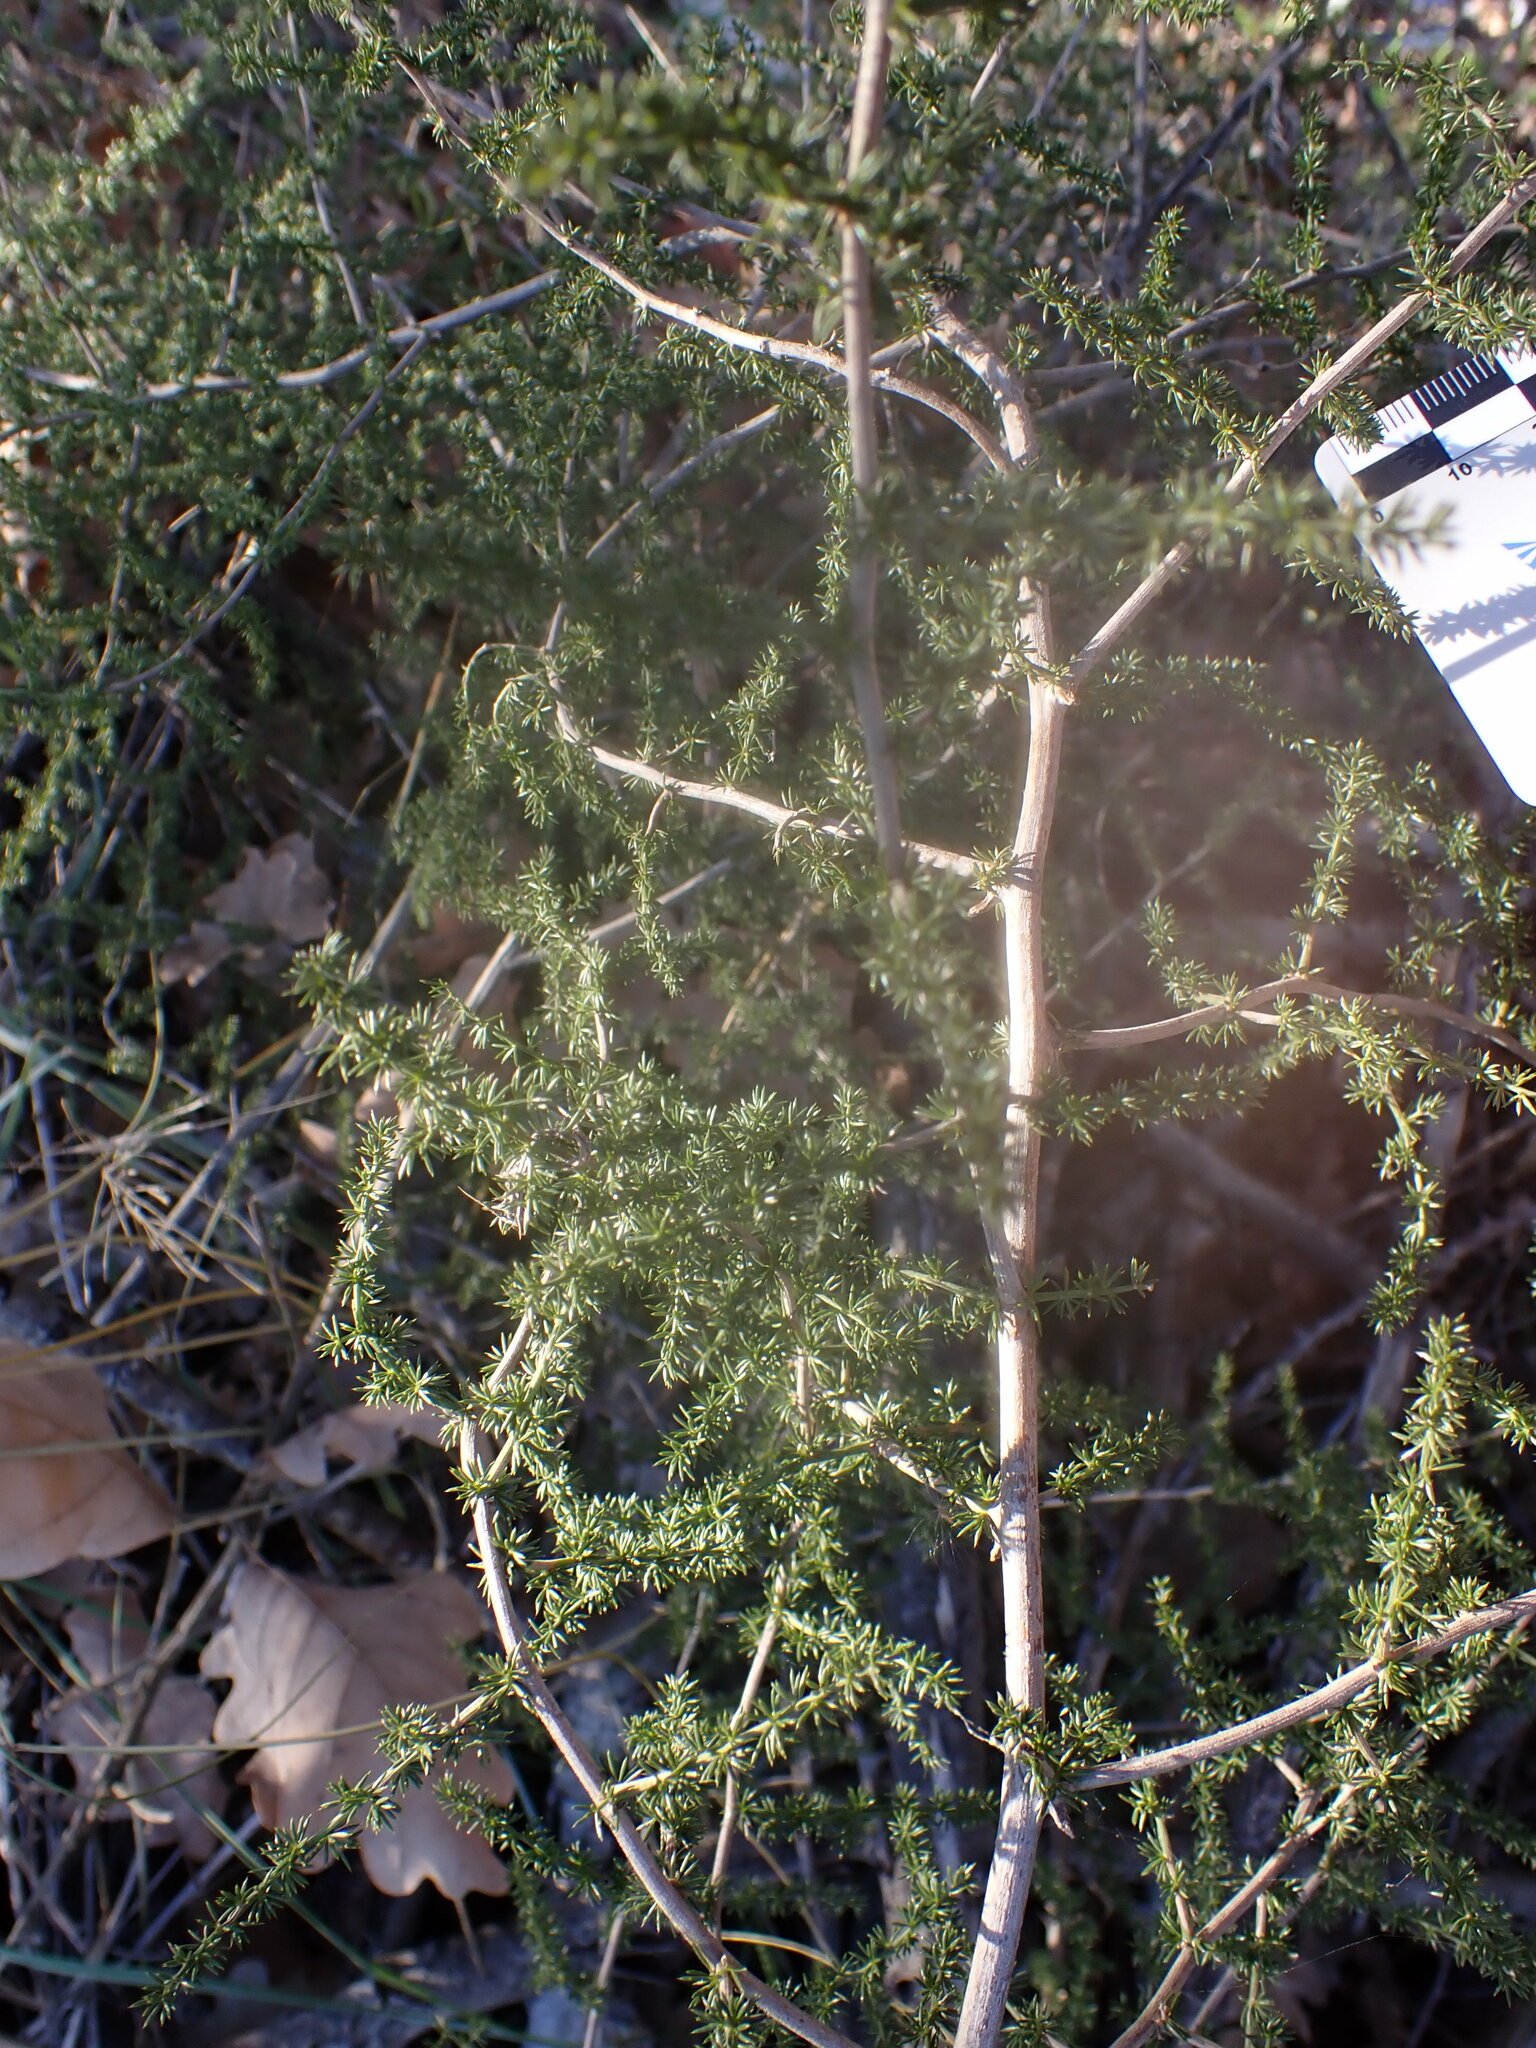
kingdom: Plantae
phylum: Tracheophyta
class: Liliopsida
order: Asparagales
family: Asparagaceae
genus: Asparagus
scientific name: Asparagus acutifolius
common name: Wild asparagus
